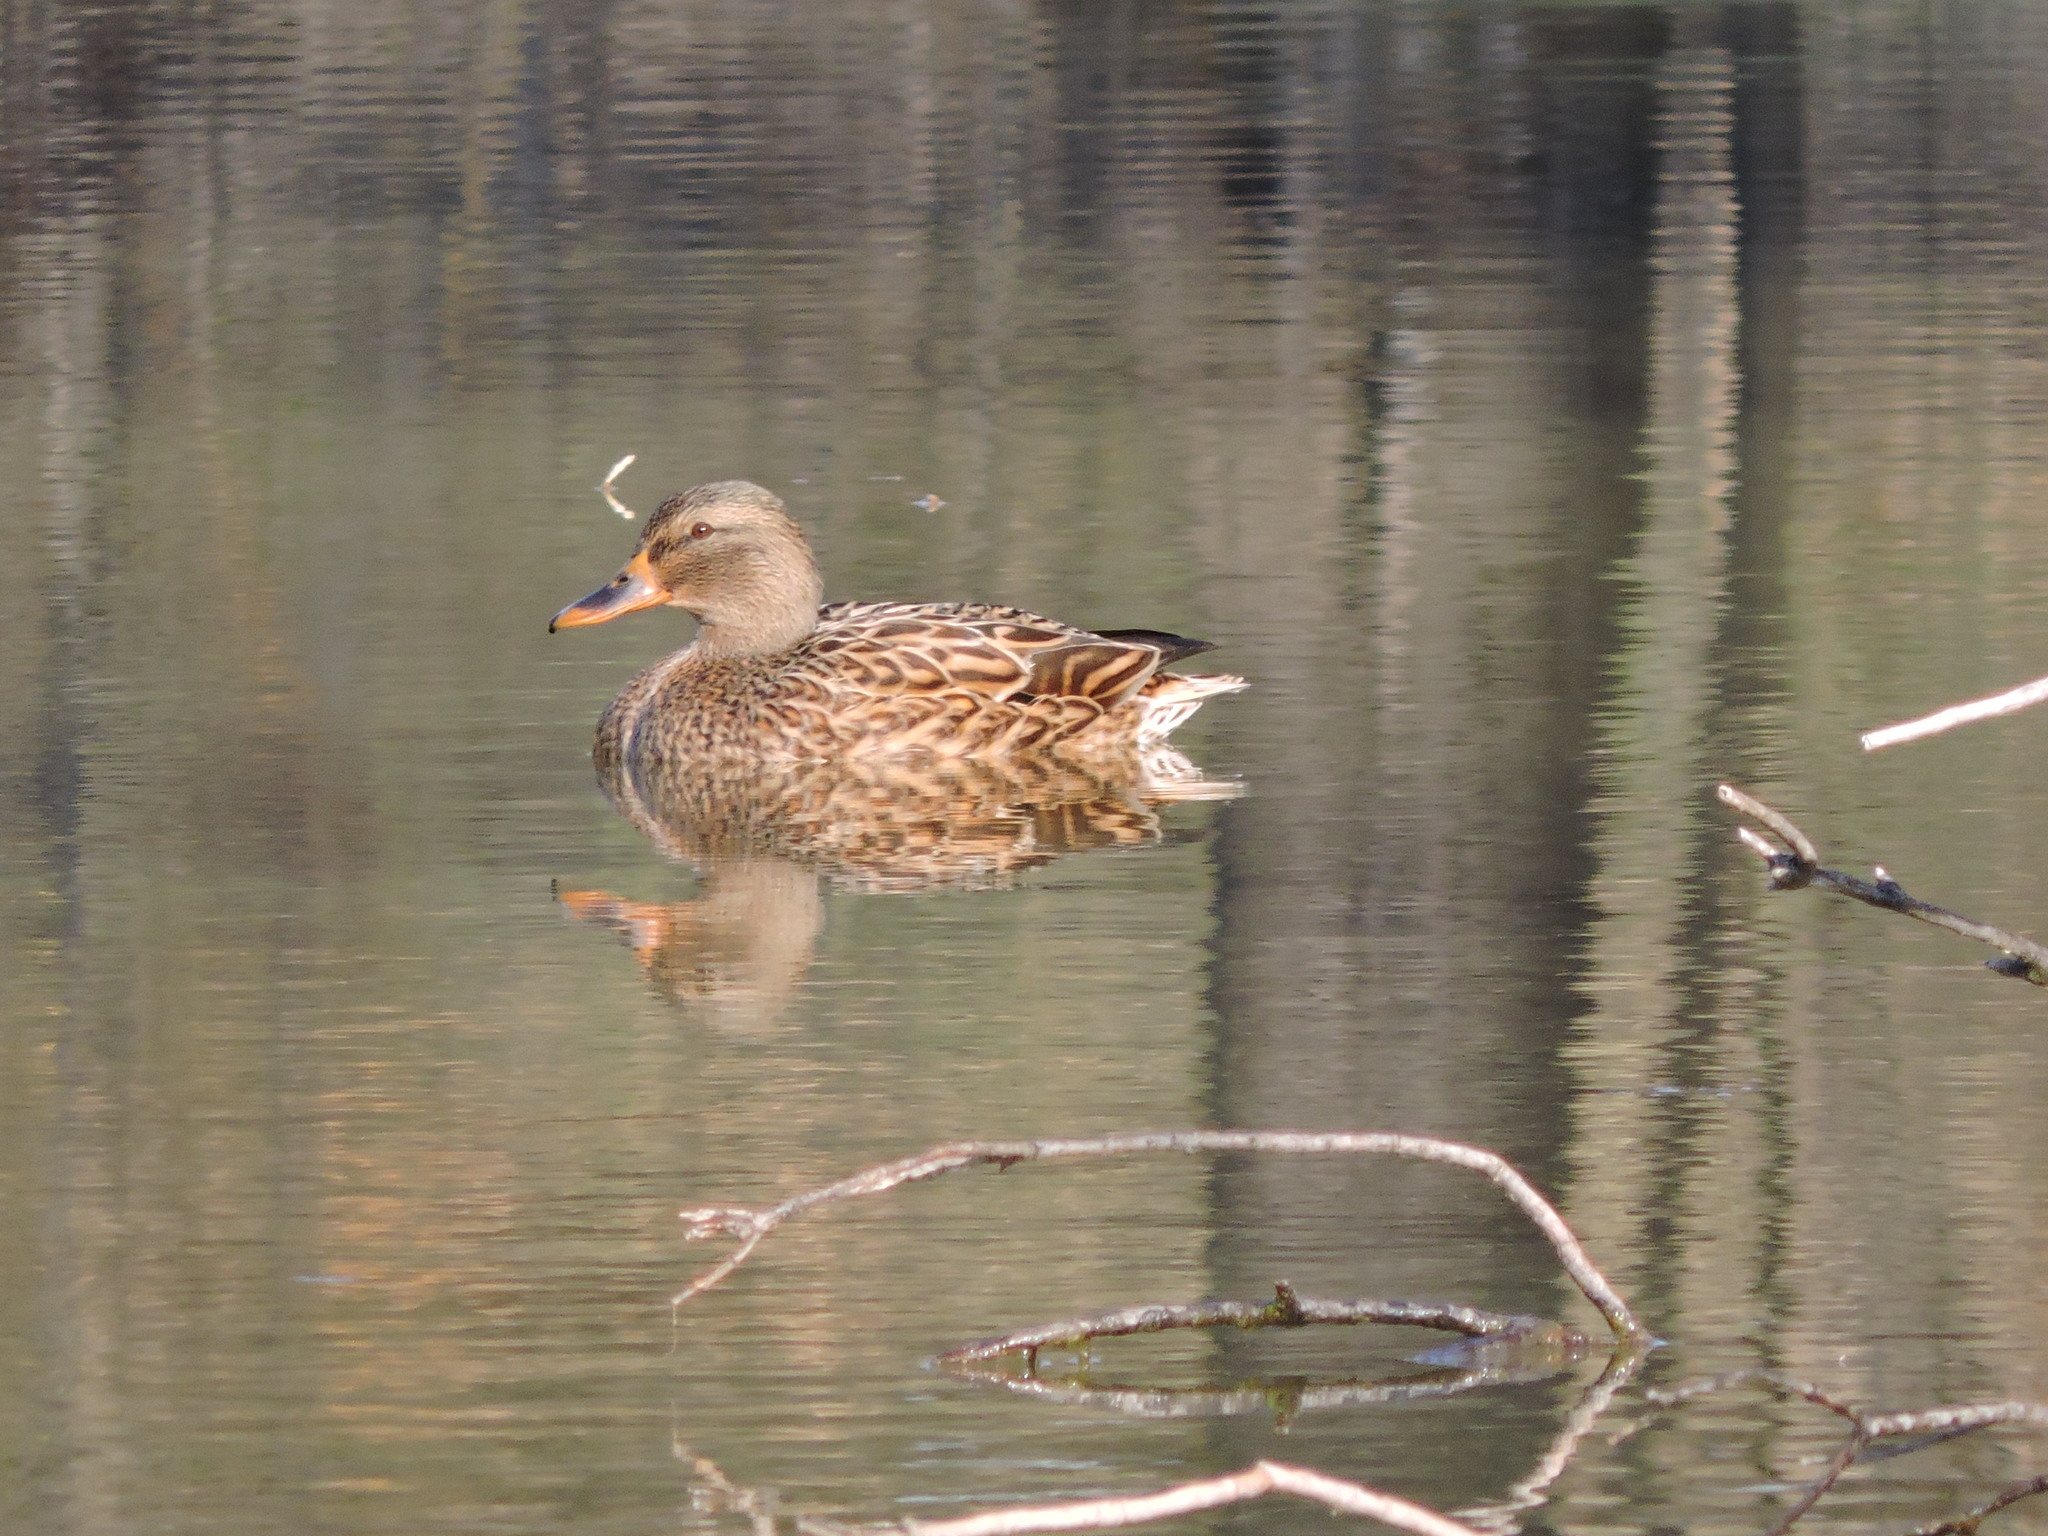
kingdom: Animalia
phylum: Chordata
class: Aves
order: Anseriformes
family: Anatidae
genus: Anas
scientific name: Anas platyrhynchos
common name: Mallard
